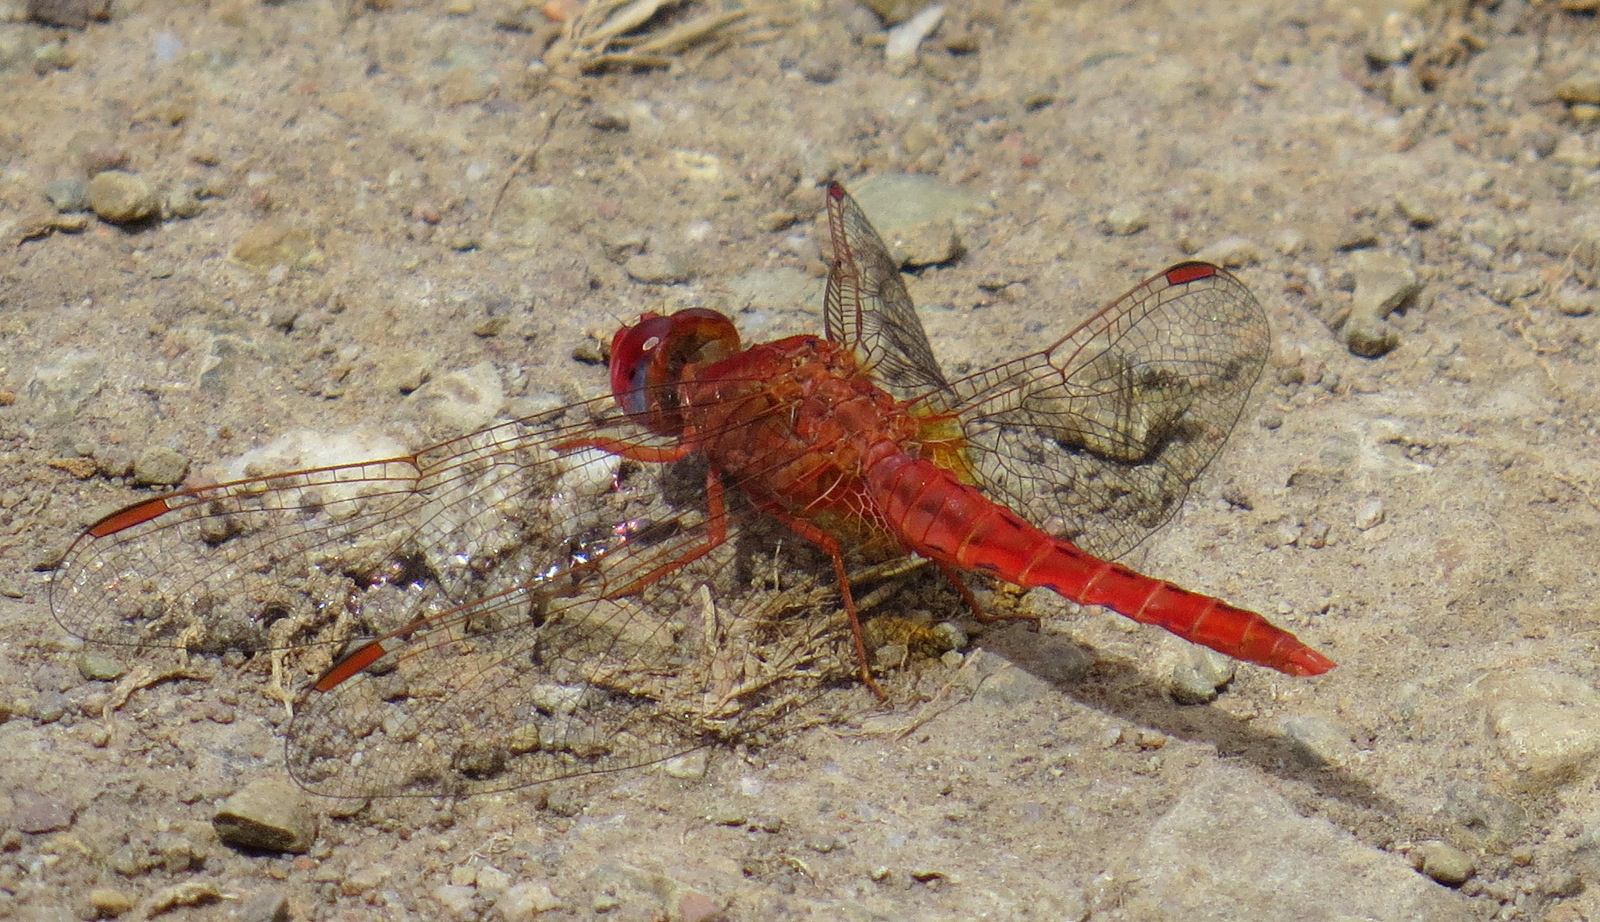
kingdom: Animalia
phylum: Arthropoda
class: Insecta
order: Odonata
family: Libellulidae
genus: Crocothemis
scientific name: Crocothemis sanguinolenta
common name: Little scarlet
